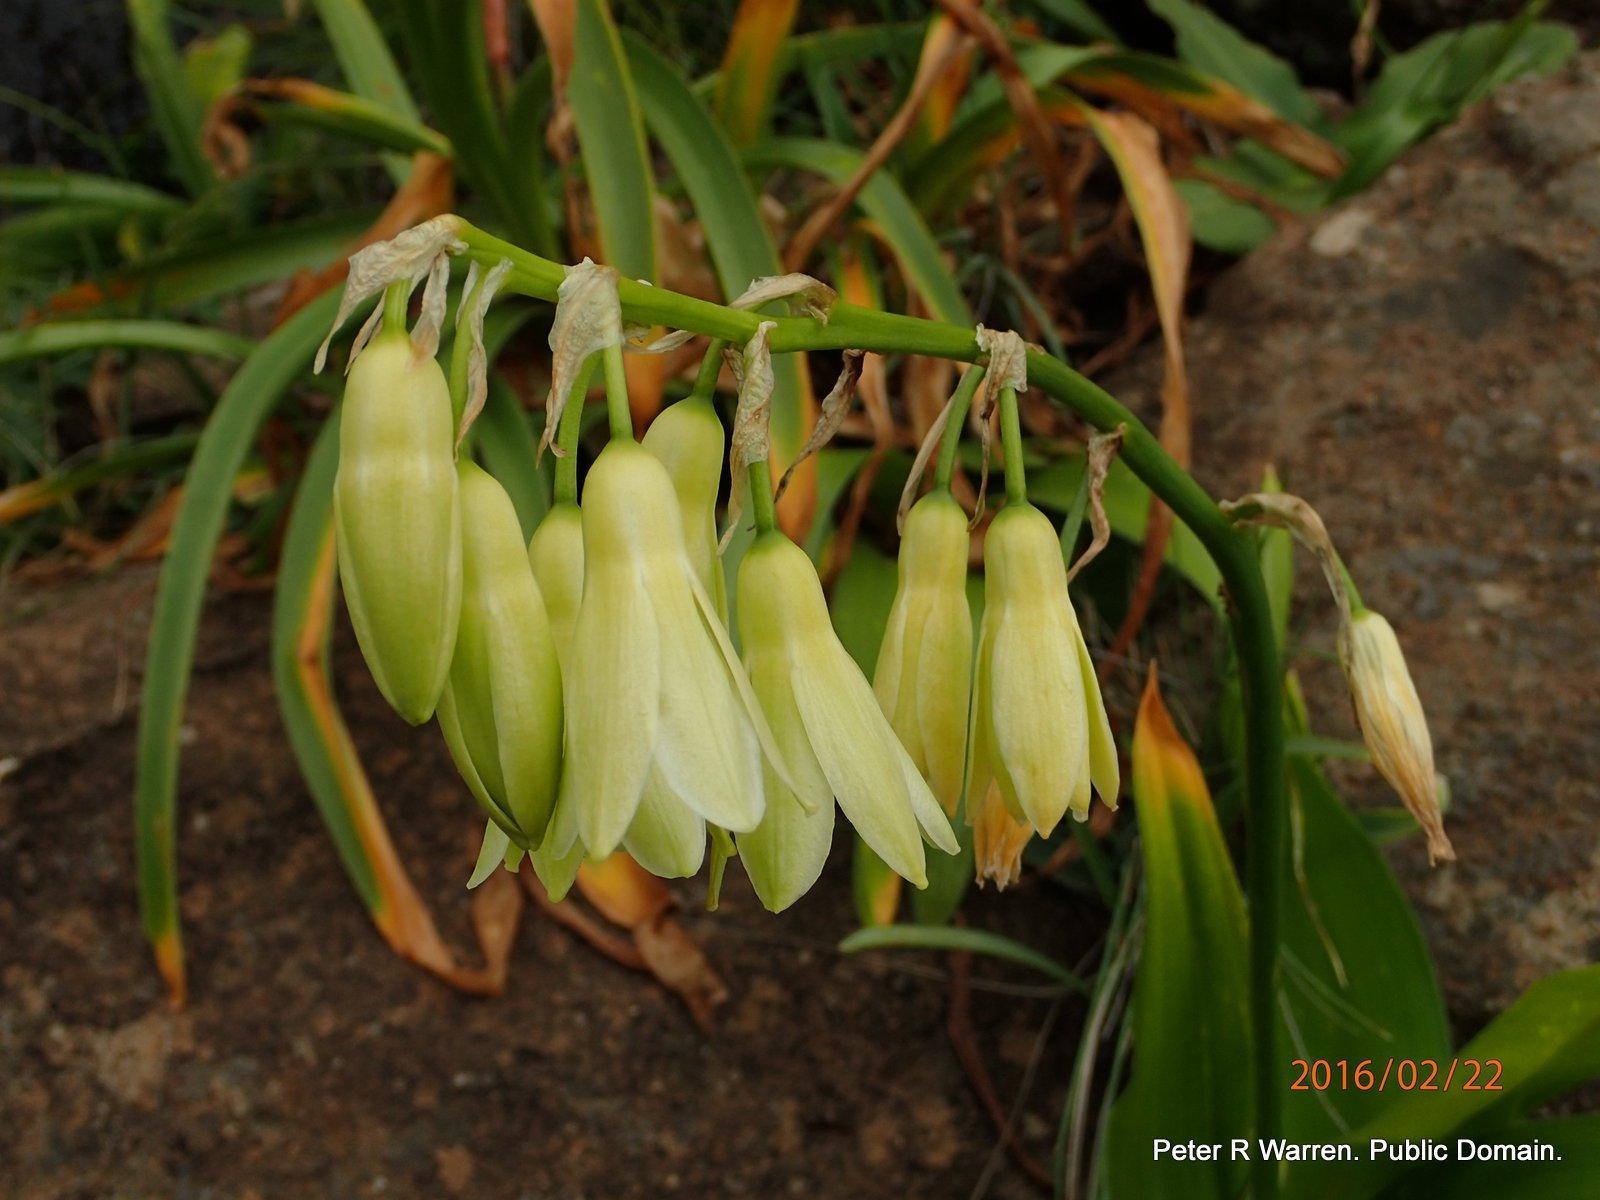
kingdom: Plantae
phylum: Tracheophyta
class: Liliopsida
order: Asparagales
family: Asparagaceae
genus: Ornithogalum
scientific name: Ornithogalum regale
